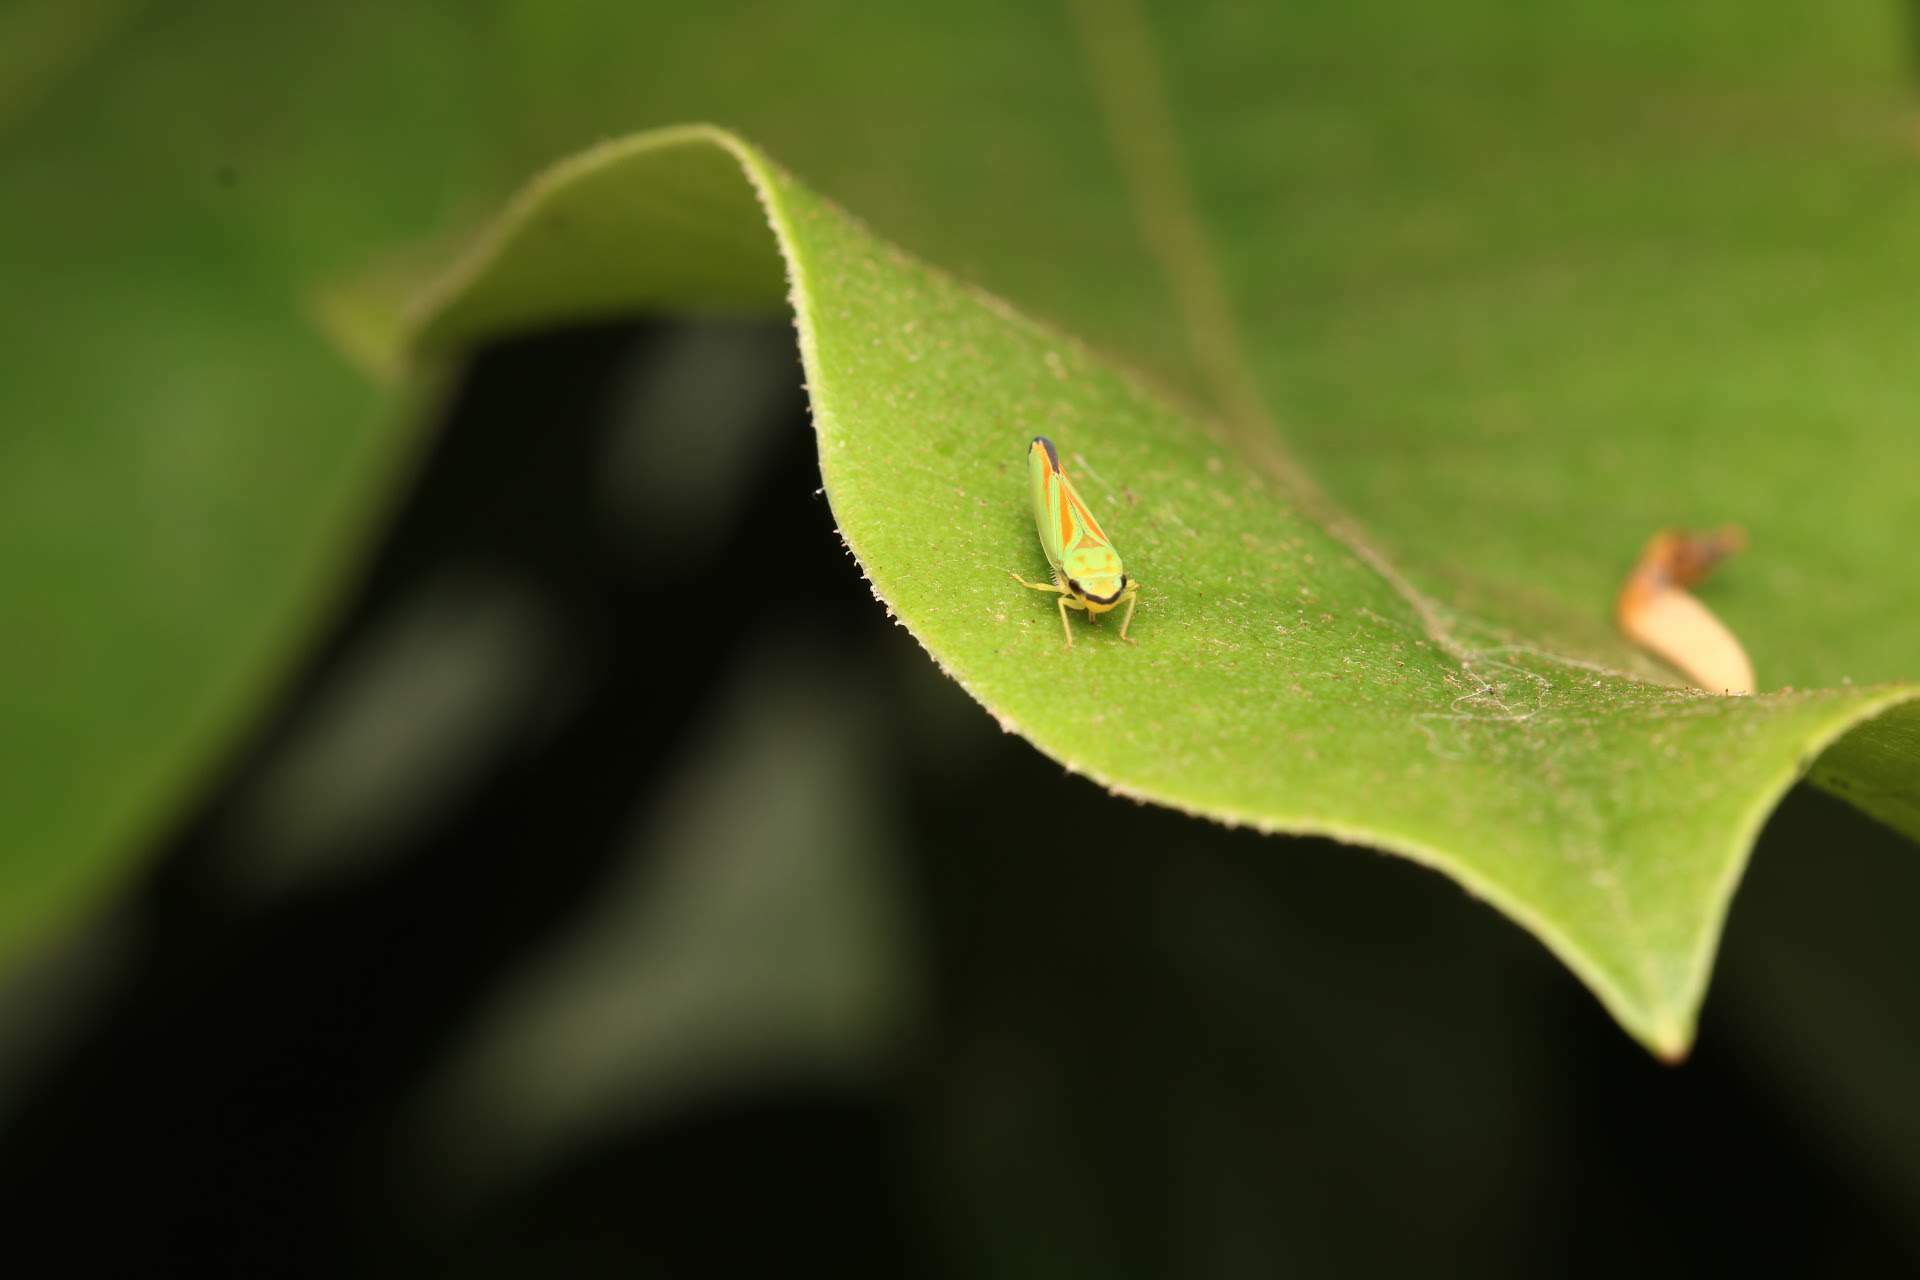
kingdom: Animalia
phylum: Arthropoda
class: Insecta
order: Hemiptera
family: Cicadellidae
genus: Graphocephala
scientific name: Graphocephala fennahi
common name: Rhododendron leafhopper
